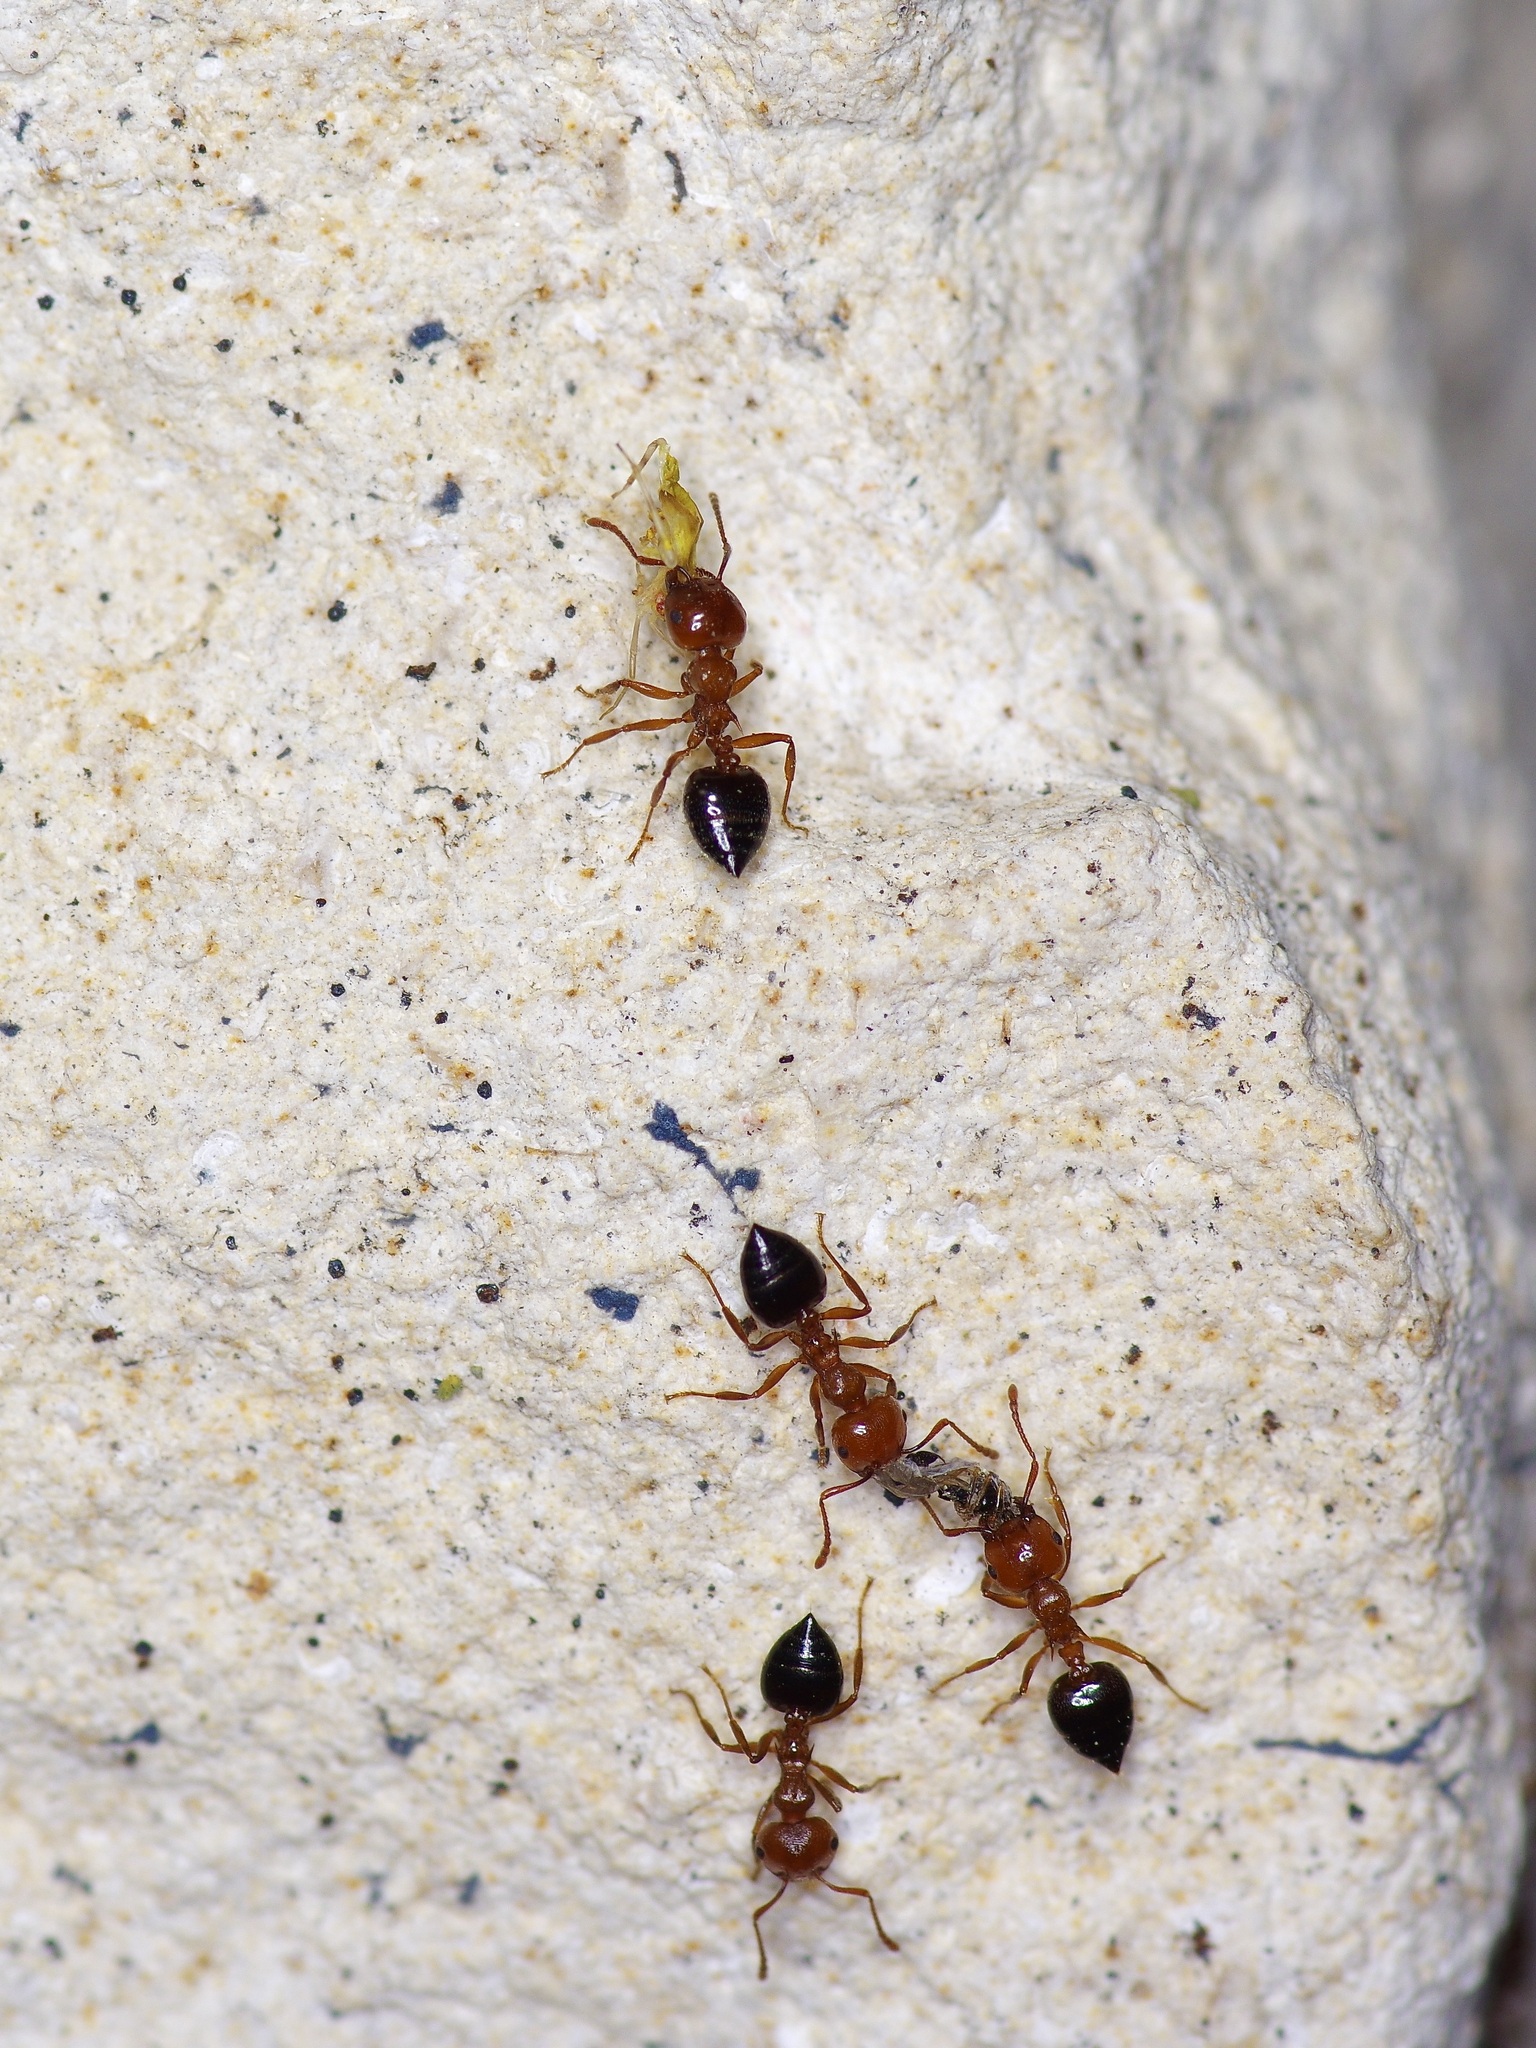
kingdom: Animalia
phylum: Arthropoda
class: Insecta
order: Hymenoptera
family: Formicidae
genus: Crematogaster
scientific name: Crematogaster laeviuscula
